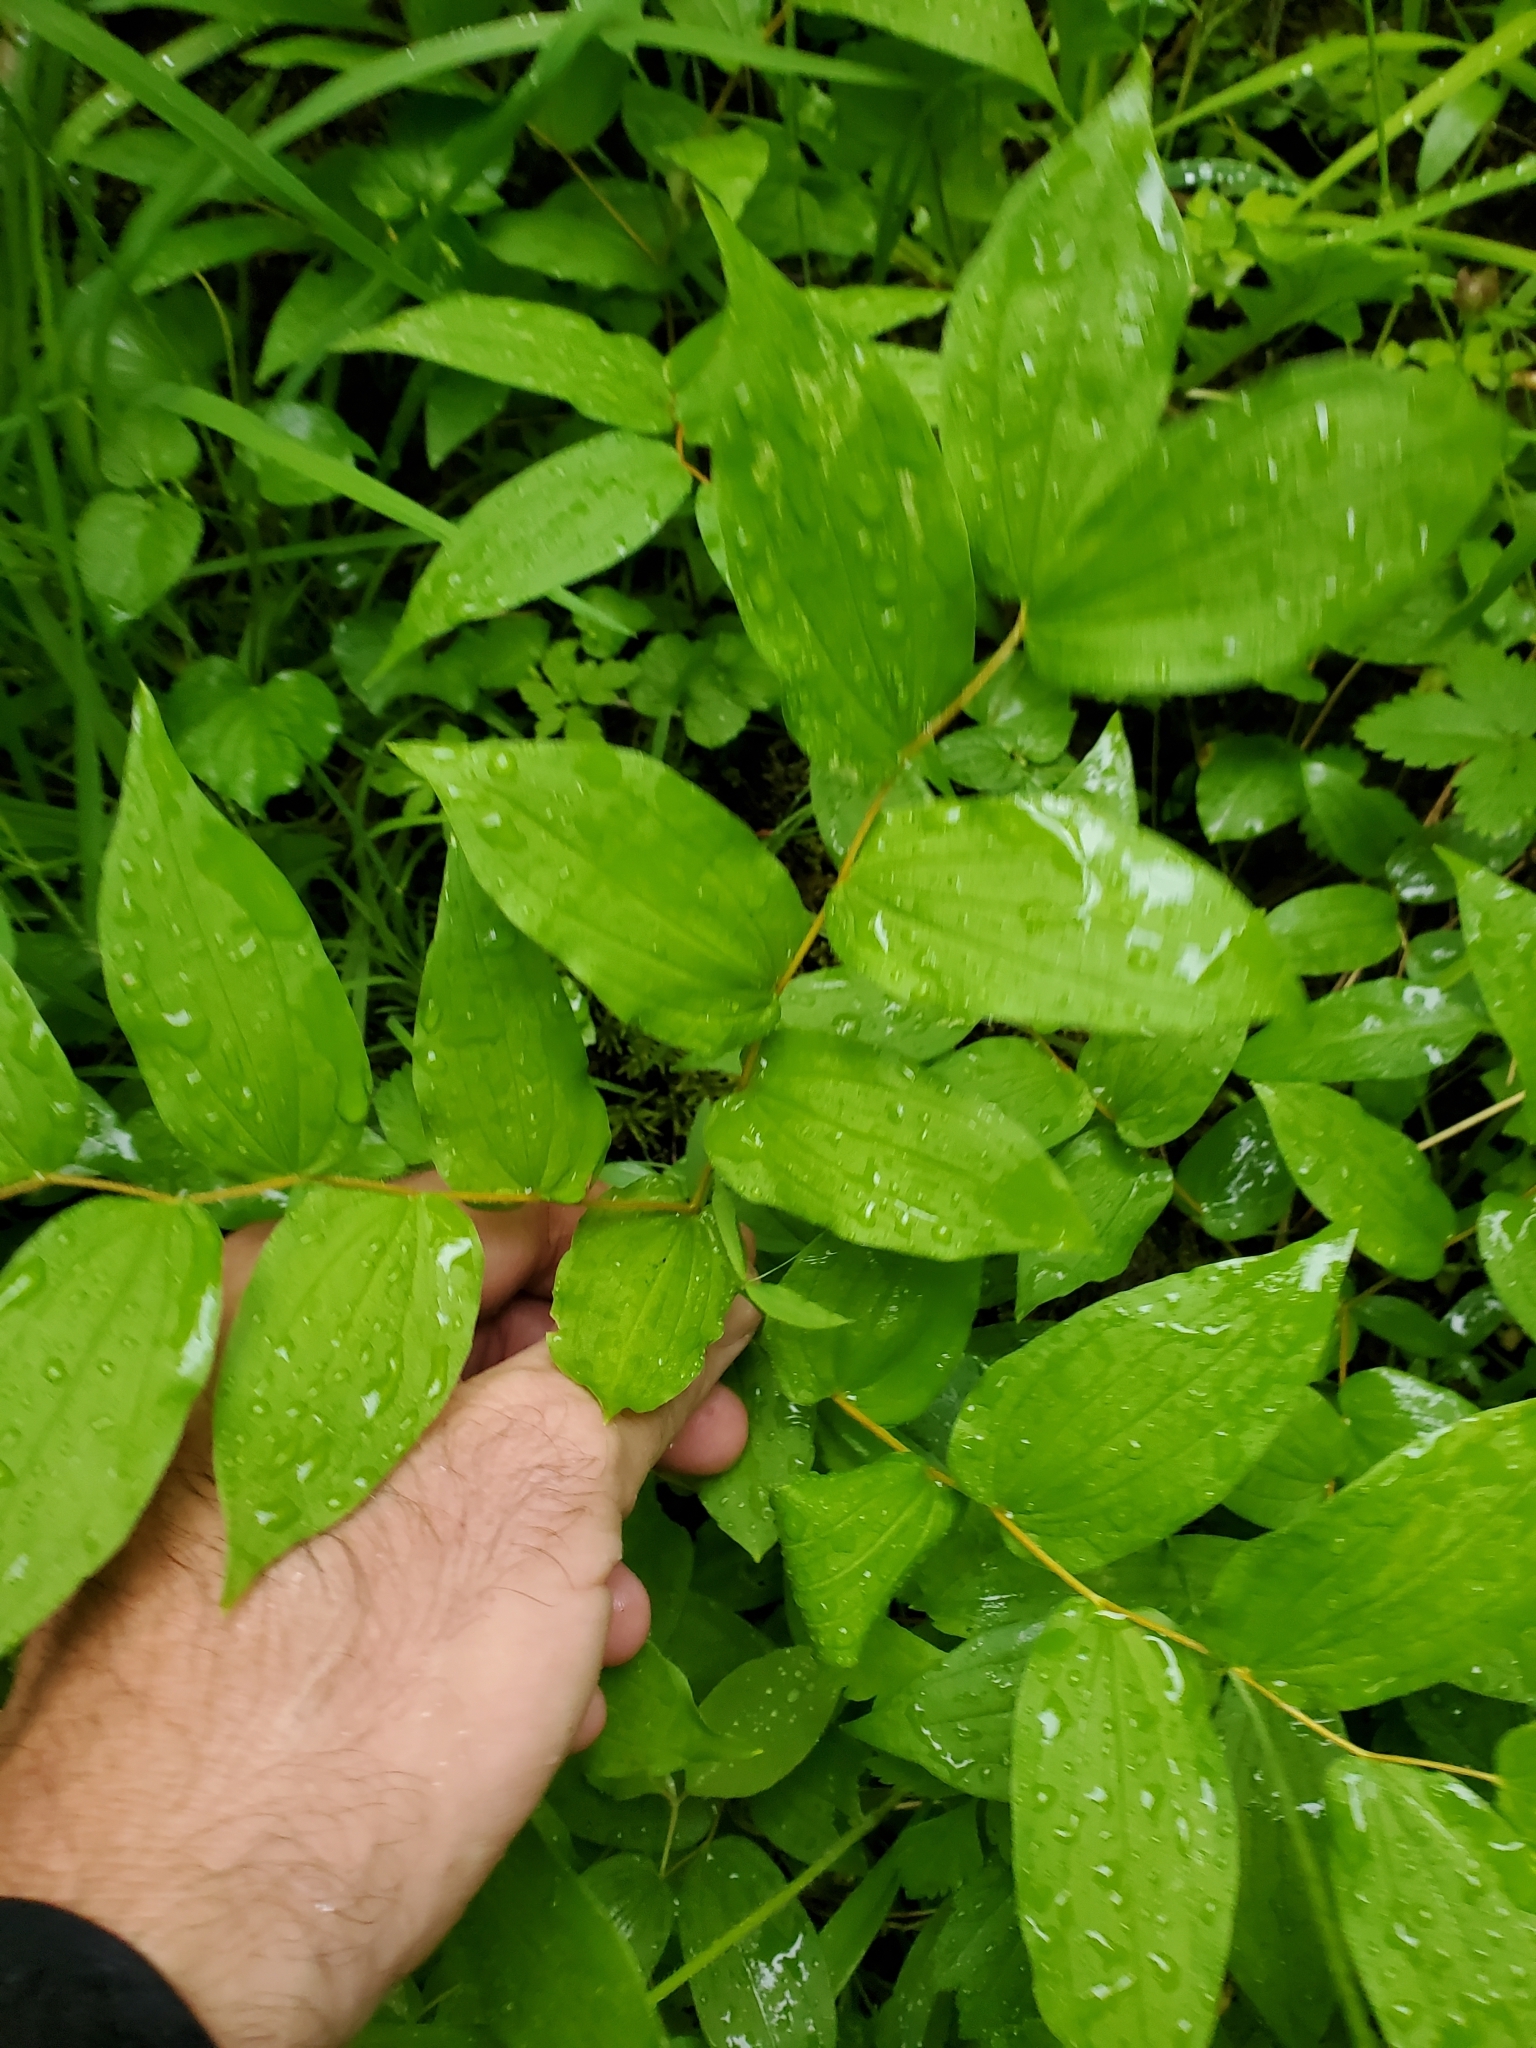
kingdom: Plantae
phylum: Tracheophyta
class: Liliopsida
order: Liliales
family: Liliaceae
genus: Prosartes
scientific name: Prosartes hookeri
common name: Fairy-bells
